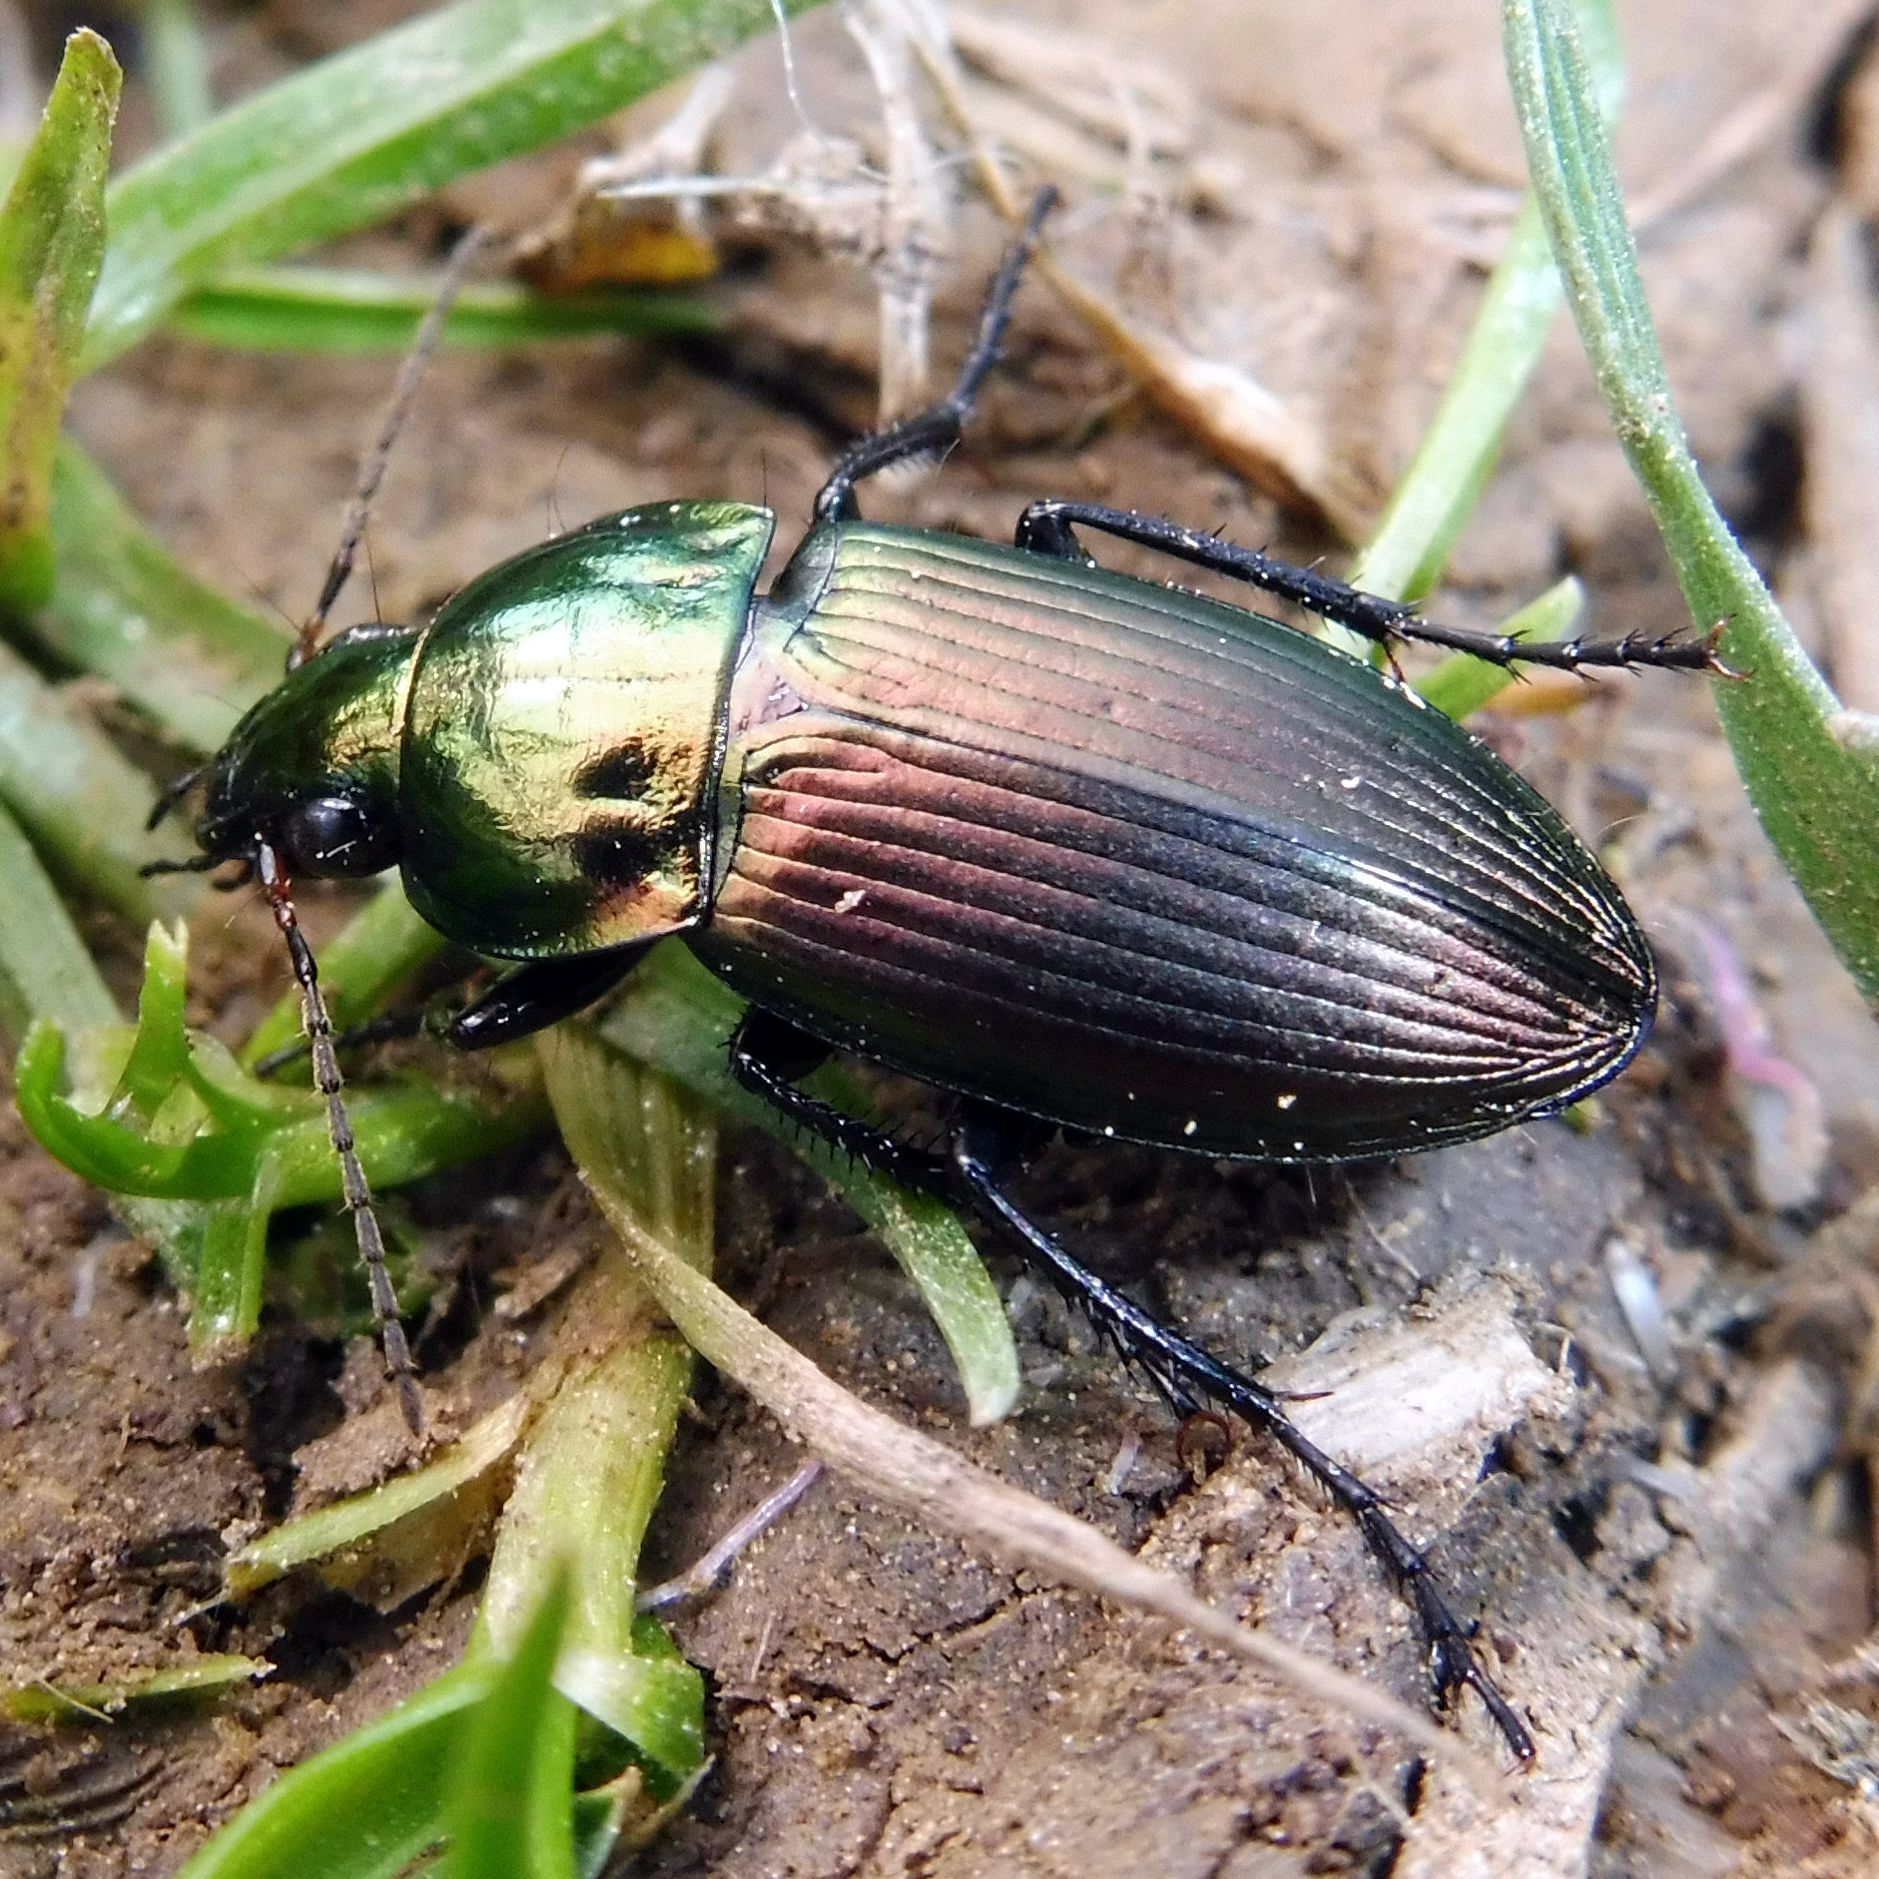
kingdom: Animalia
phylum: Arthropoda
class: Insecta
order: Coleoptera
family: Carabidae
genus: Poecilus
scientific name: Poecilus versicolor
